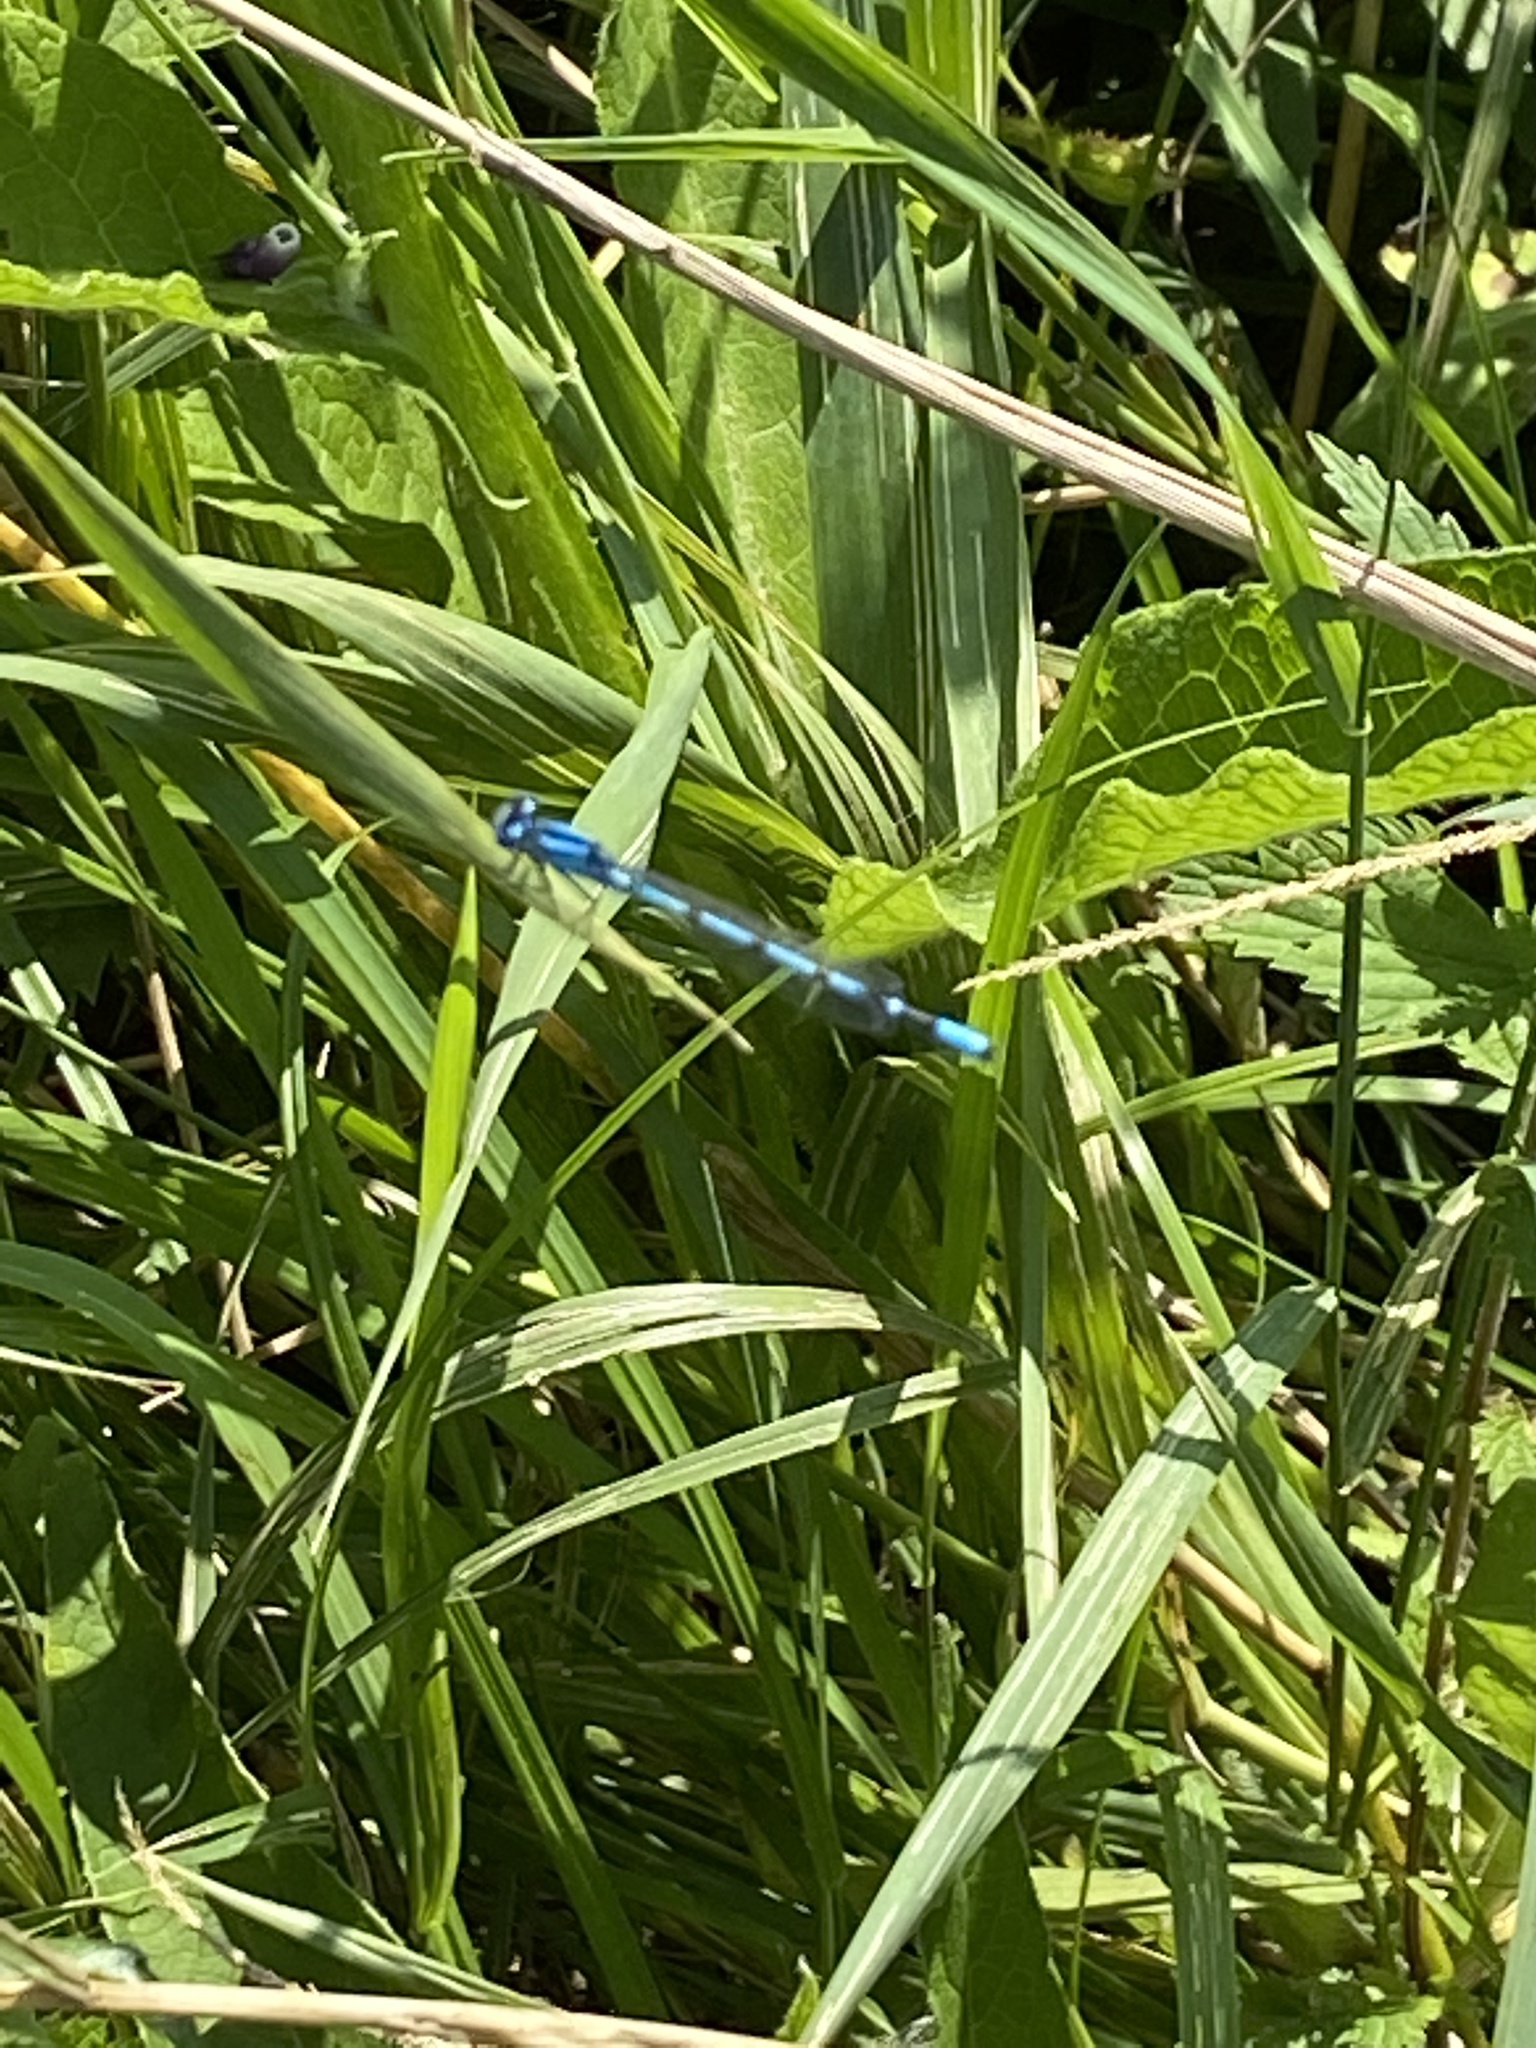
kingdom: Animalia
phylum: Arthropoda
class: Insecta
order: Odonata
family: Coenagrionidae
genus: Enallagma
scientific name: Enallagma cyathigerum
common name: Common blue damselfly
